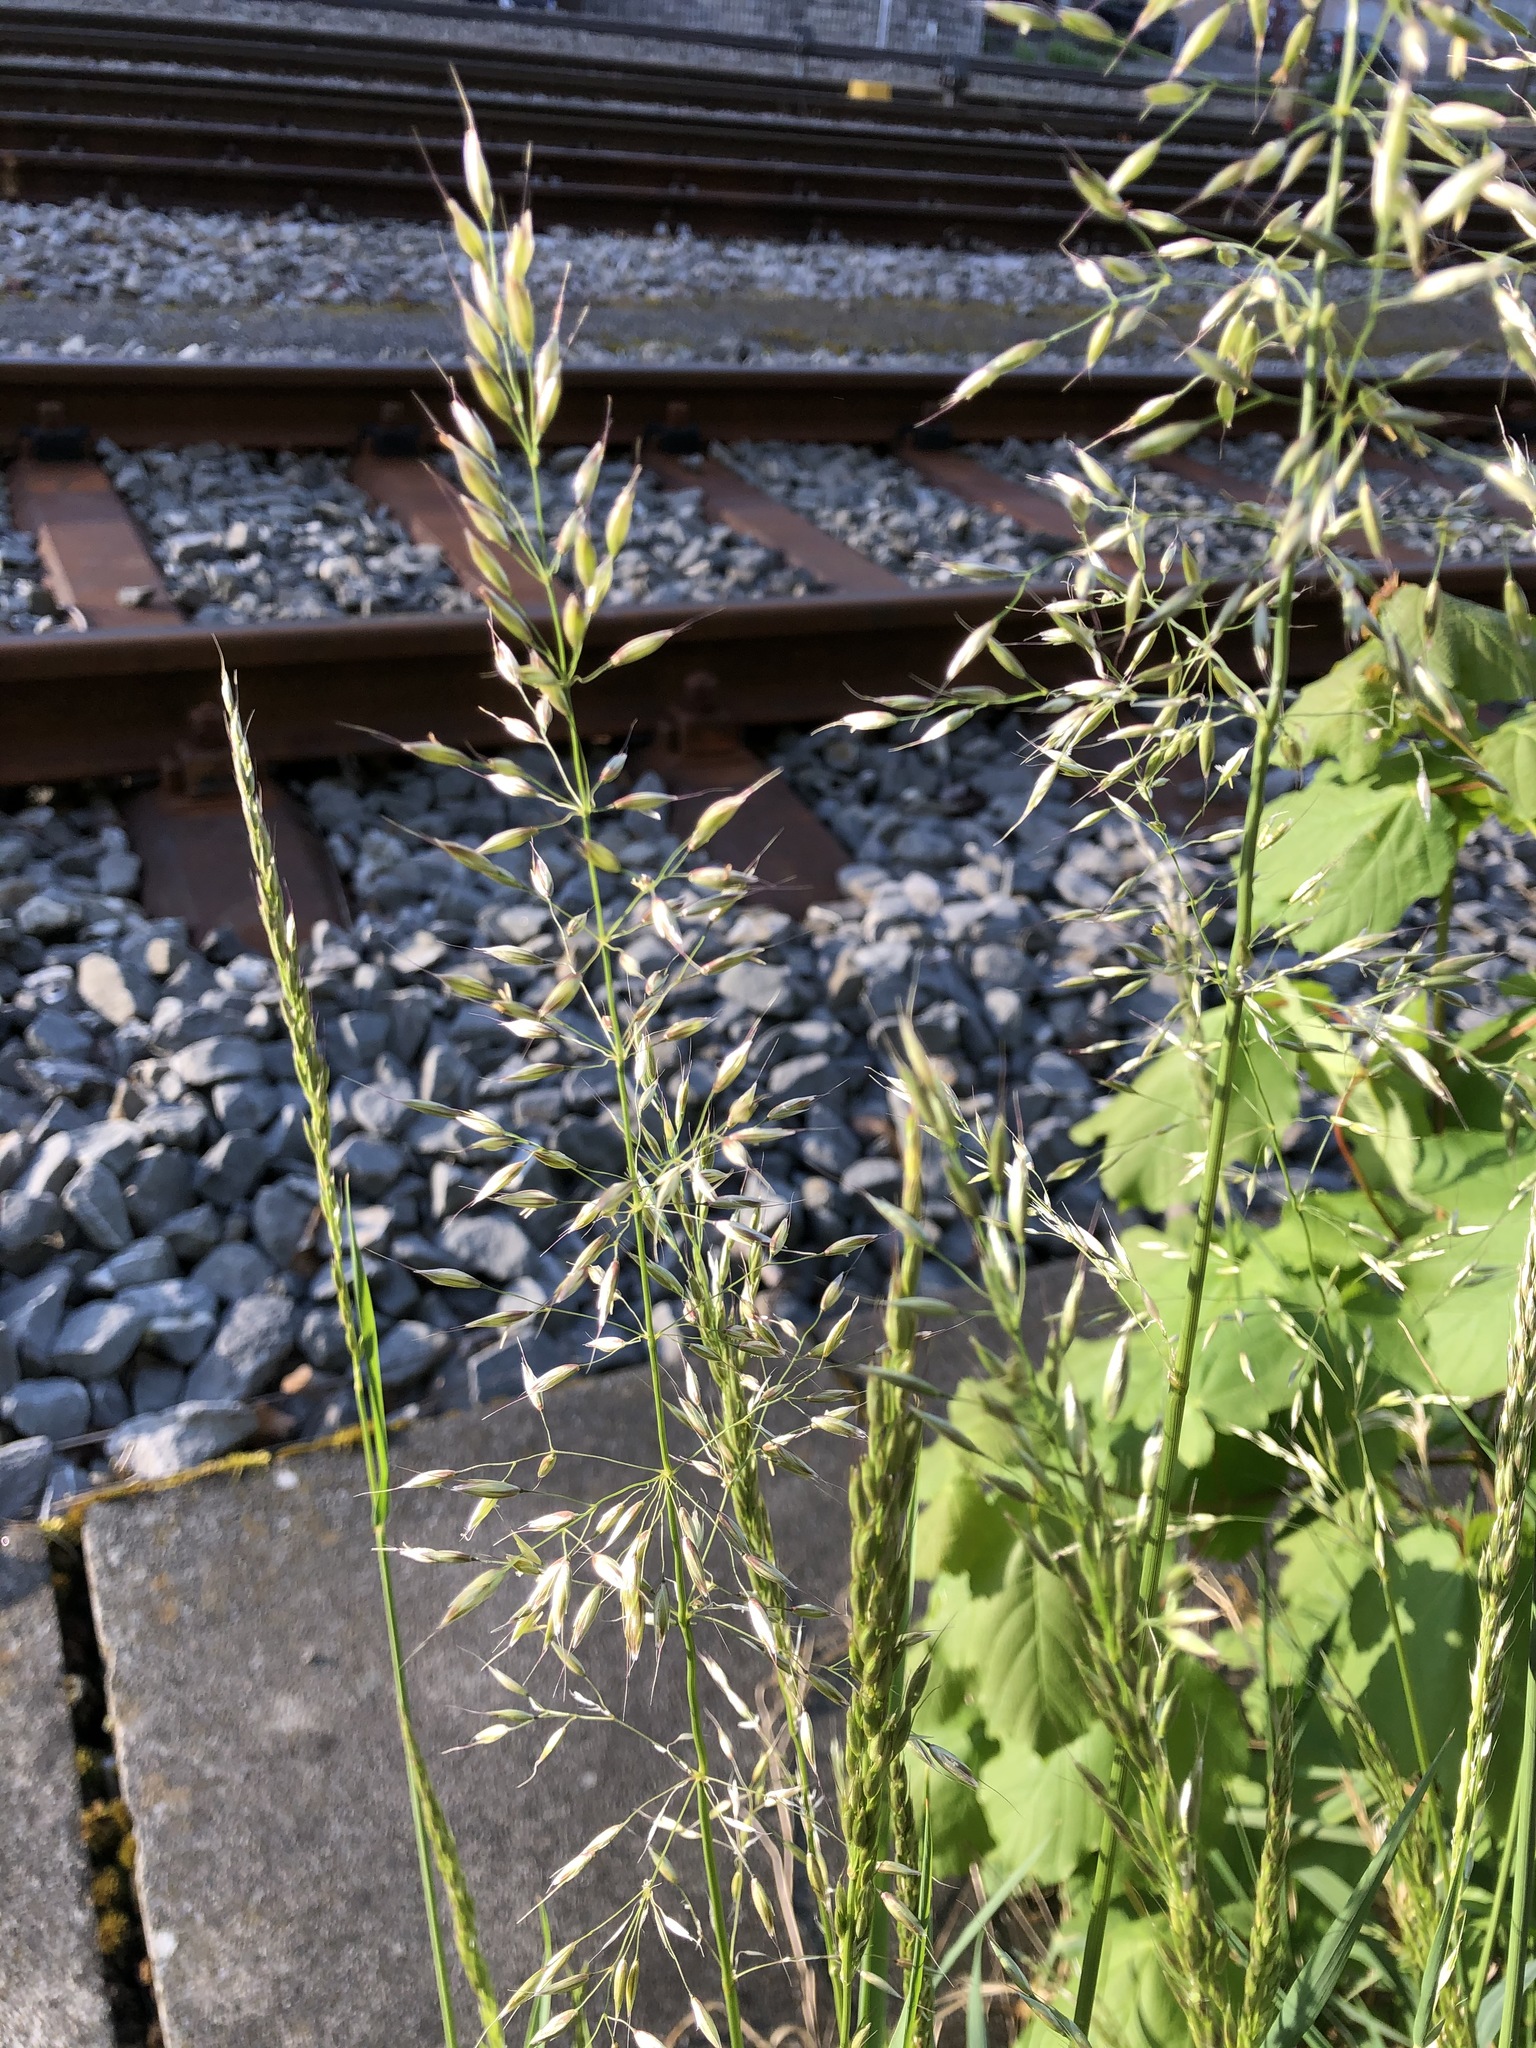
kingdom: Plantae
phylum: Tracheophyta
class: Liliopsida
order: Poales
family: Poaceae
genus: Arrhenatherum
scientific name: Arrhenatherum elatius
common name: Tall oatgrass
